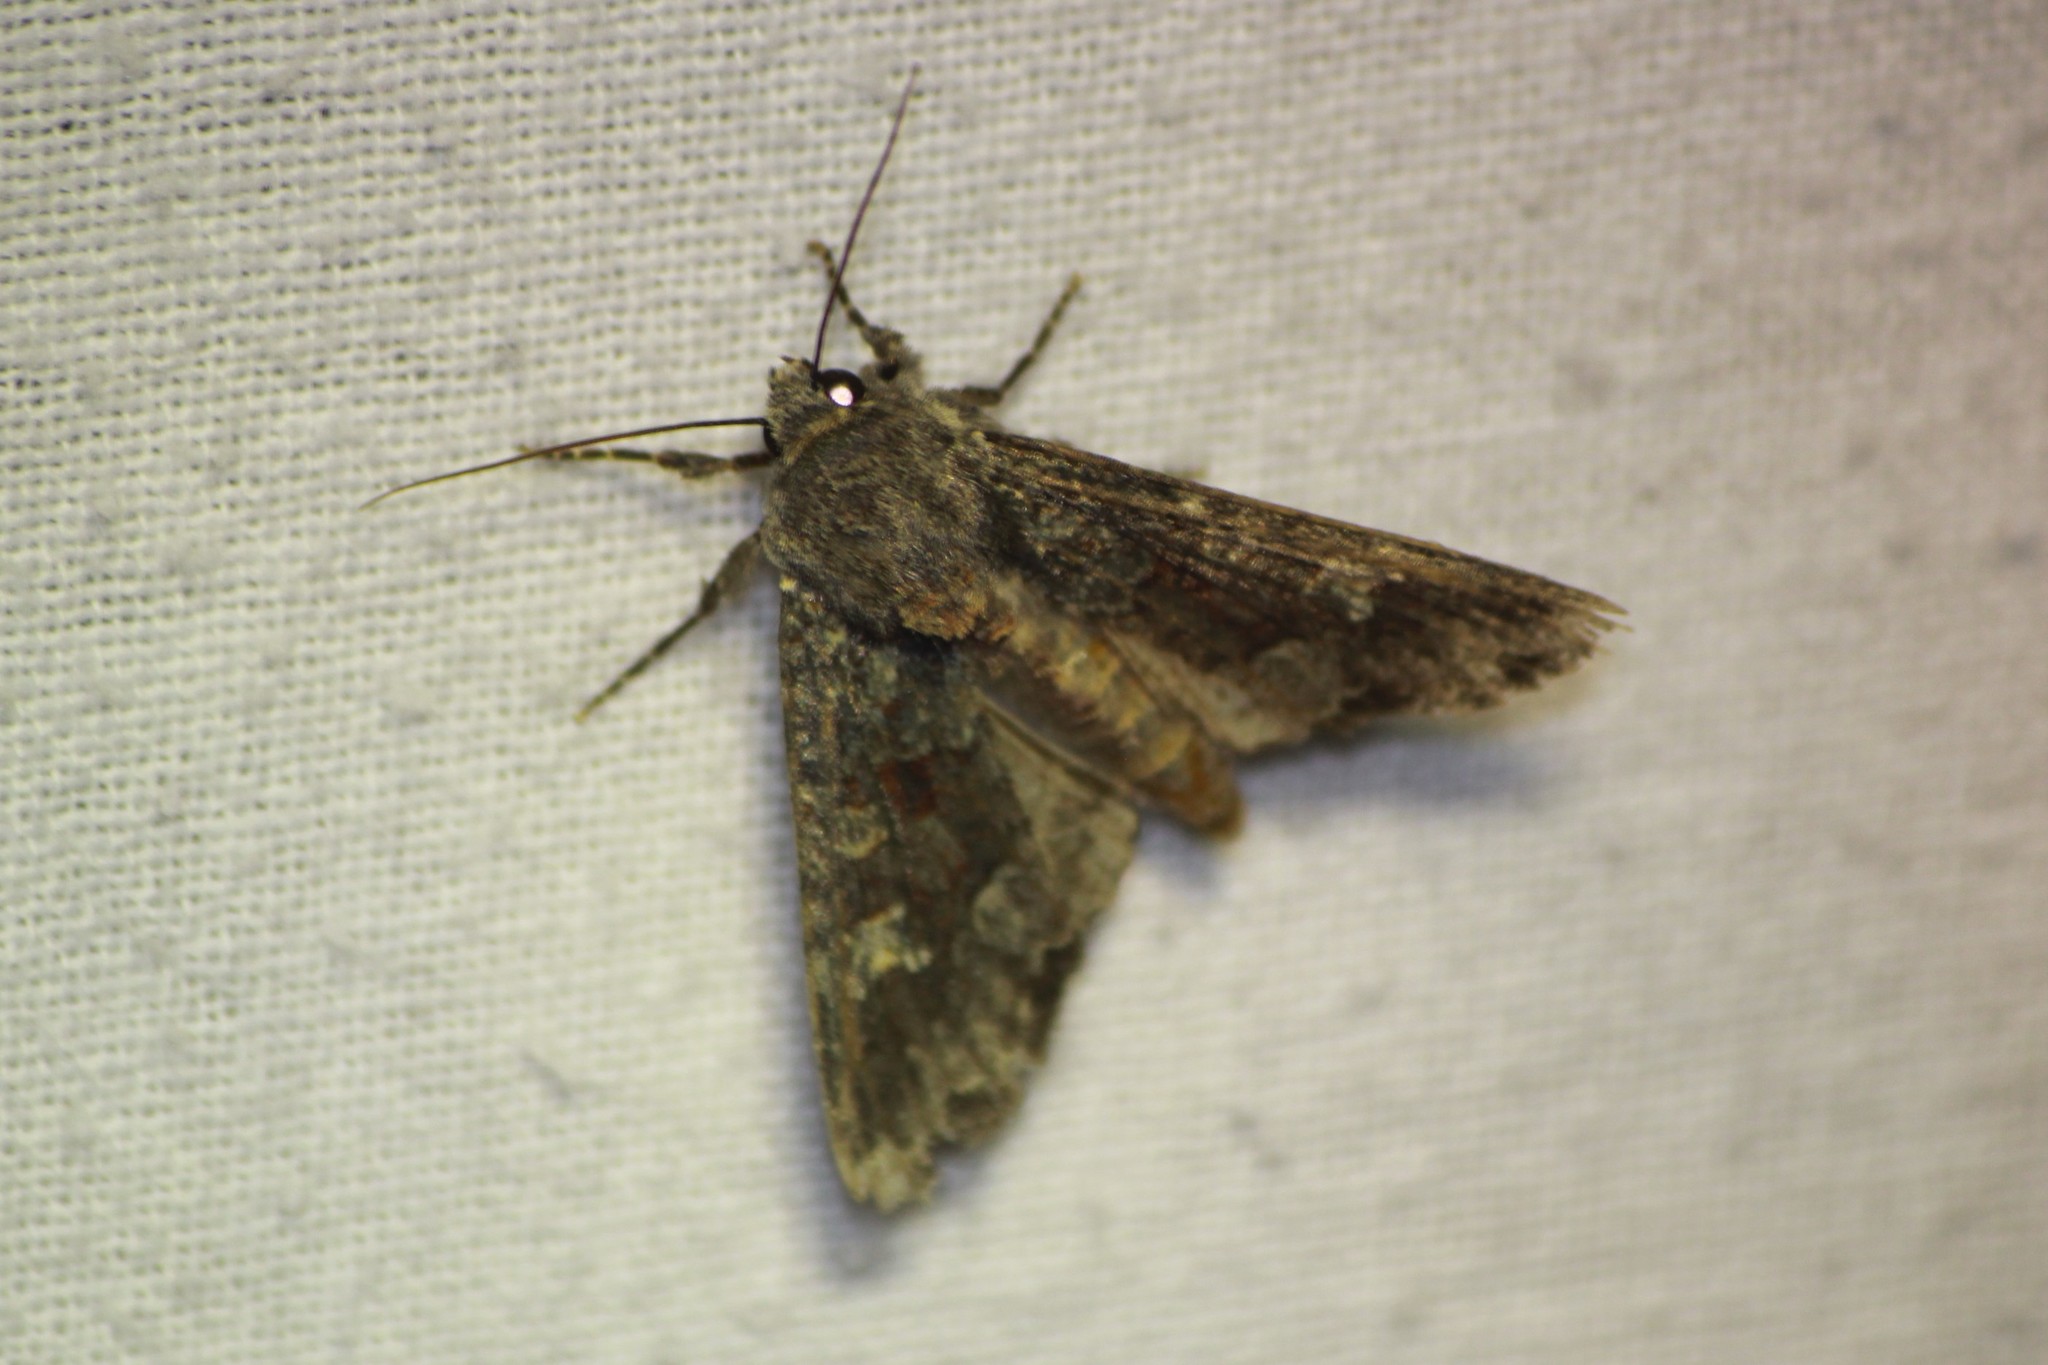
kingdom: Animalia
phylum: Arthropoda
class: Insecta
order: Lepidoptera
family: Noctuidae
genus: Apamea
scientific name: Apamea amputatrix
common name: Yellow-headed cutworm moth
